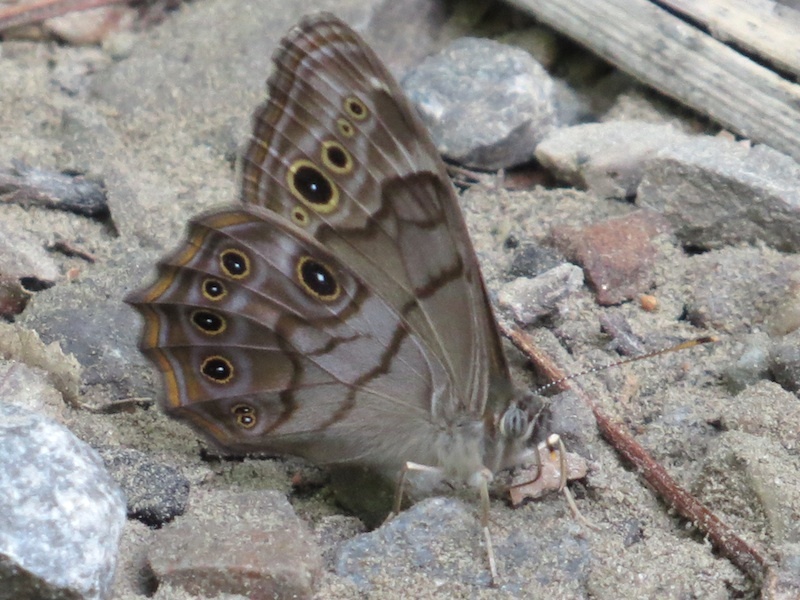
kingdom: Animalia
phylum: Arthropoda
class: Insecta
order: Lepidoptera
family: Nymphalidae
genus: Lethe
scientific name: Lethe anthedon
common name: Northern pearly-eye
